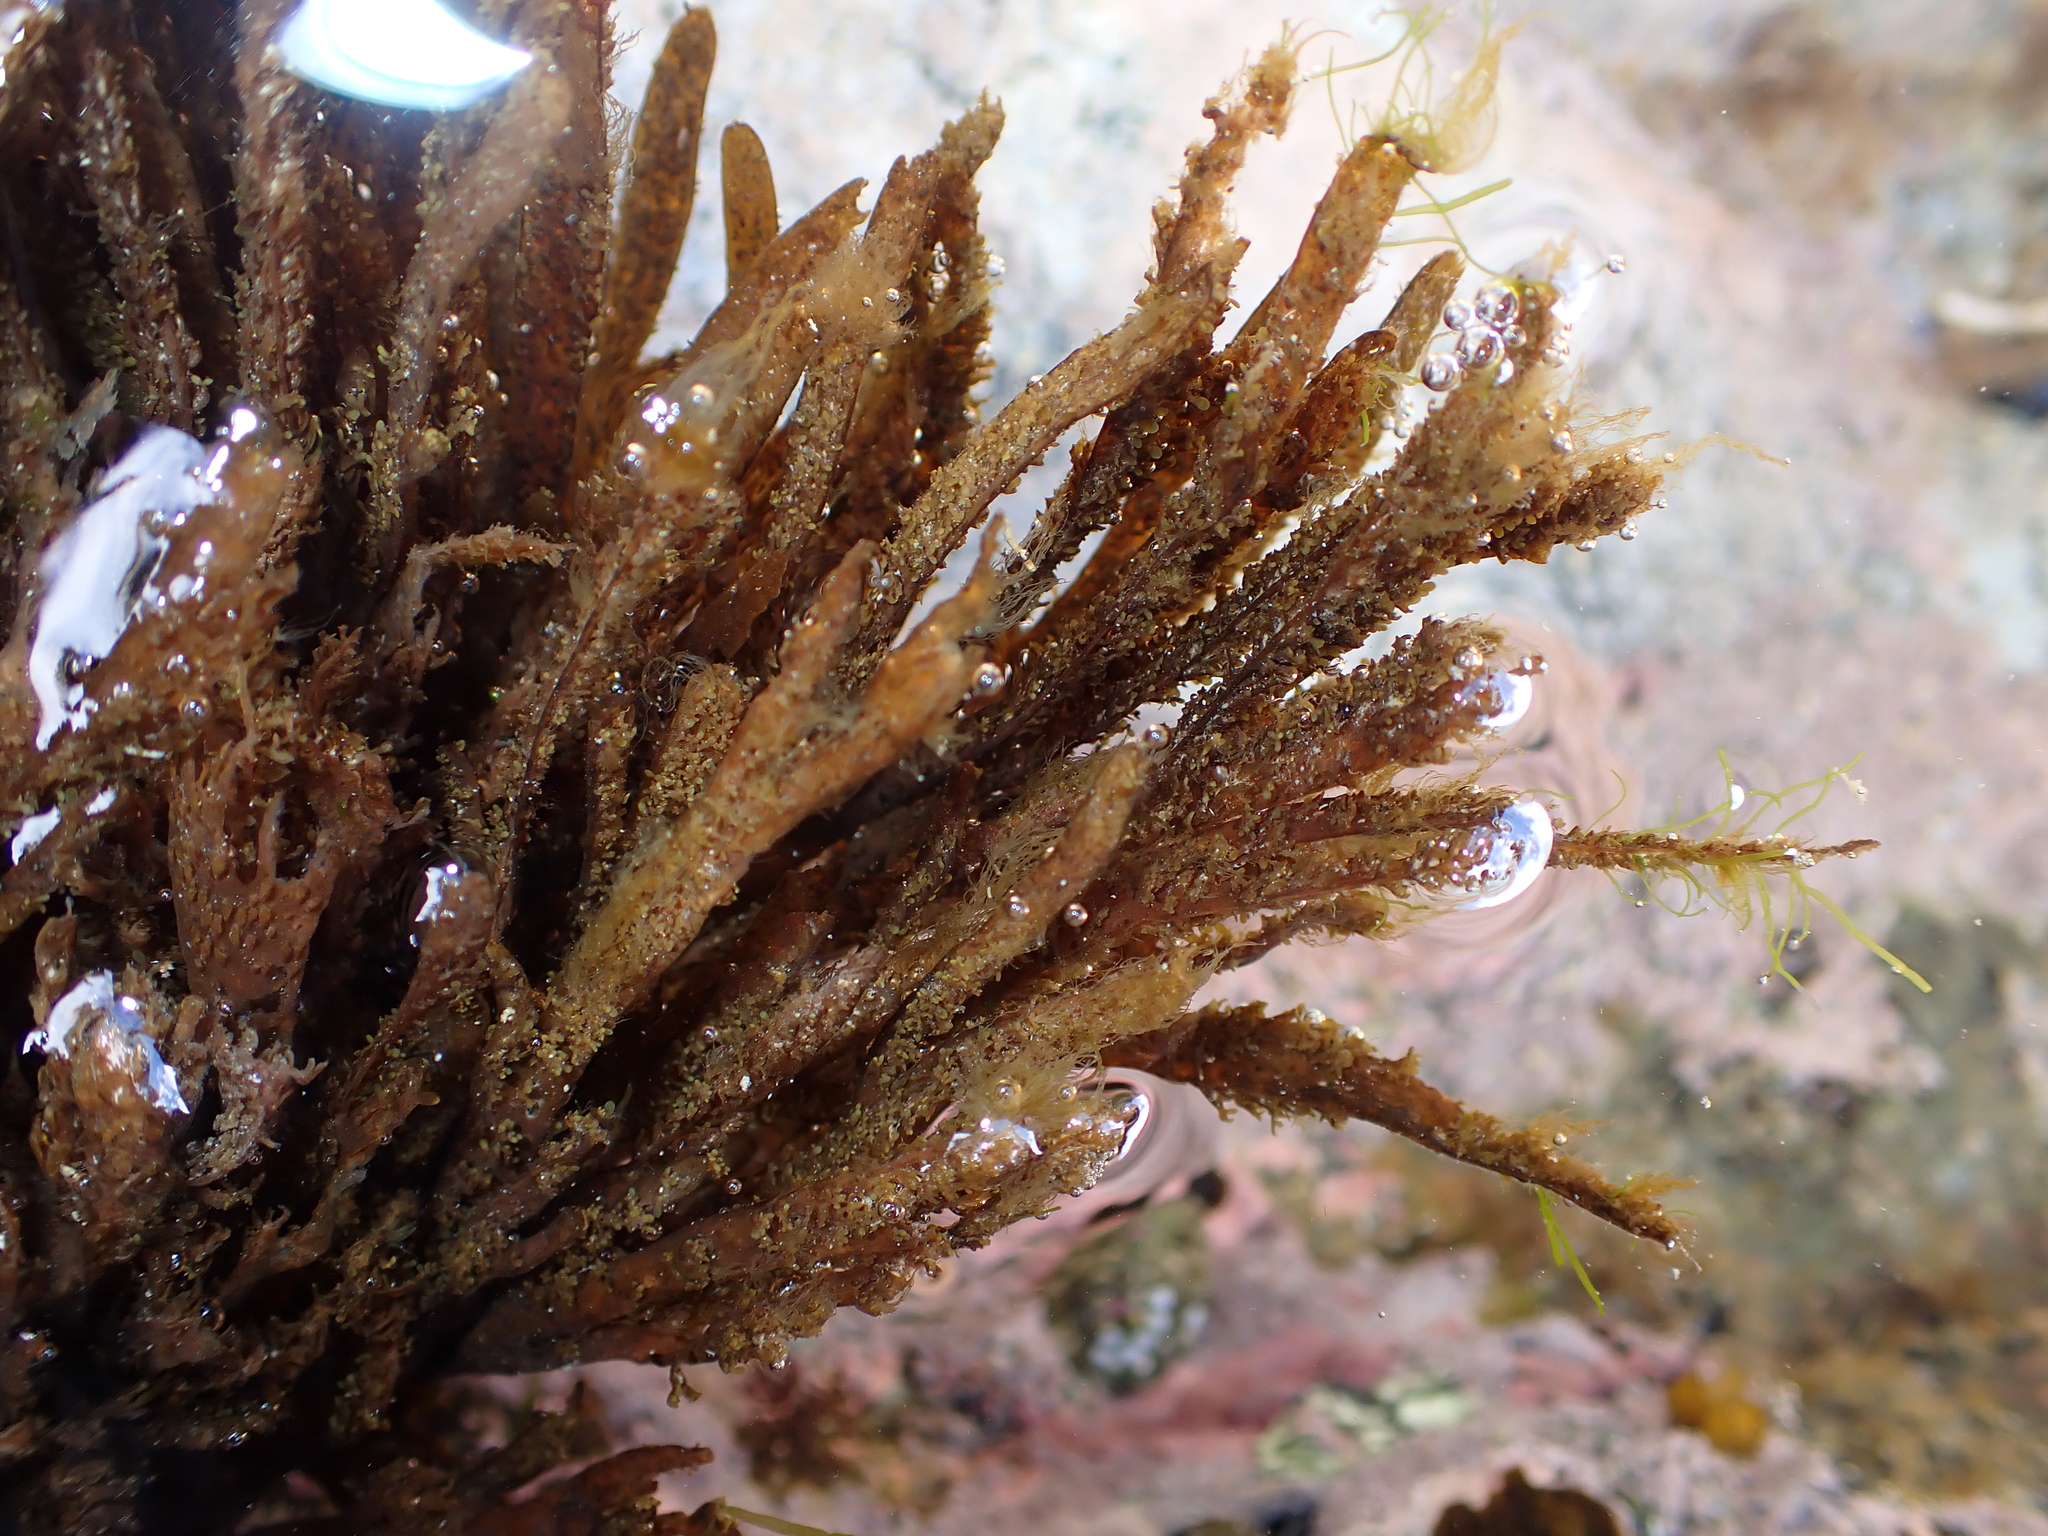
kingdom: Chromista
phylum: Ochrophyta
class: Phaeophyceae
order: Dictyotales
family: Dictyotaceae
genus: Dictyota
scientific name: Dictyota kunthii
